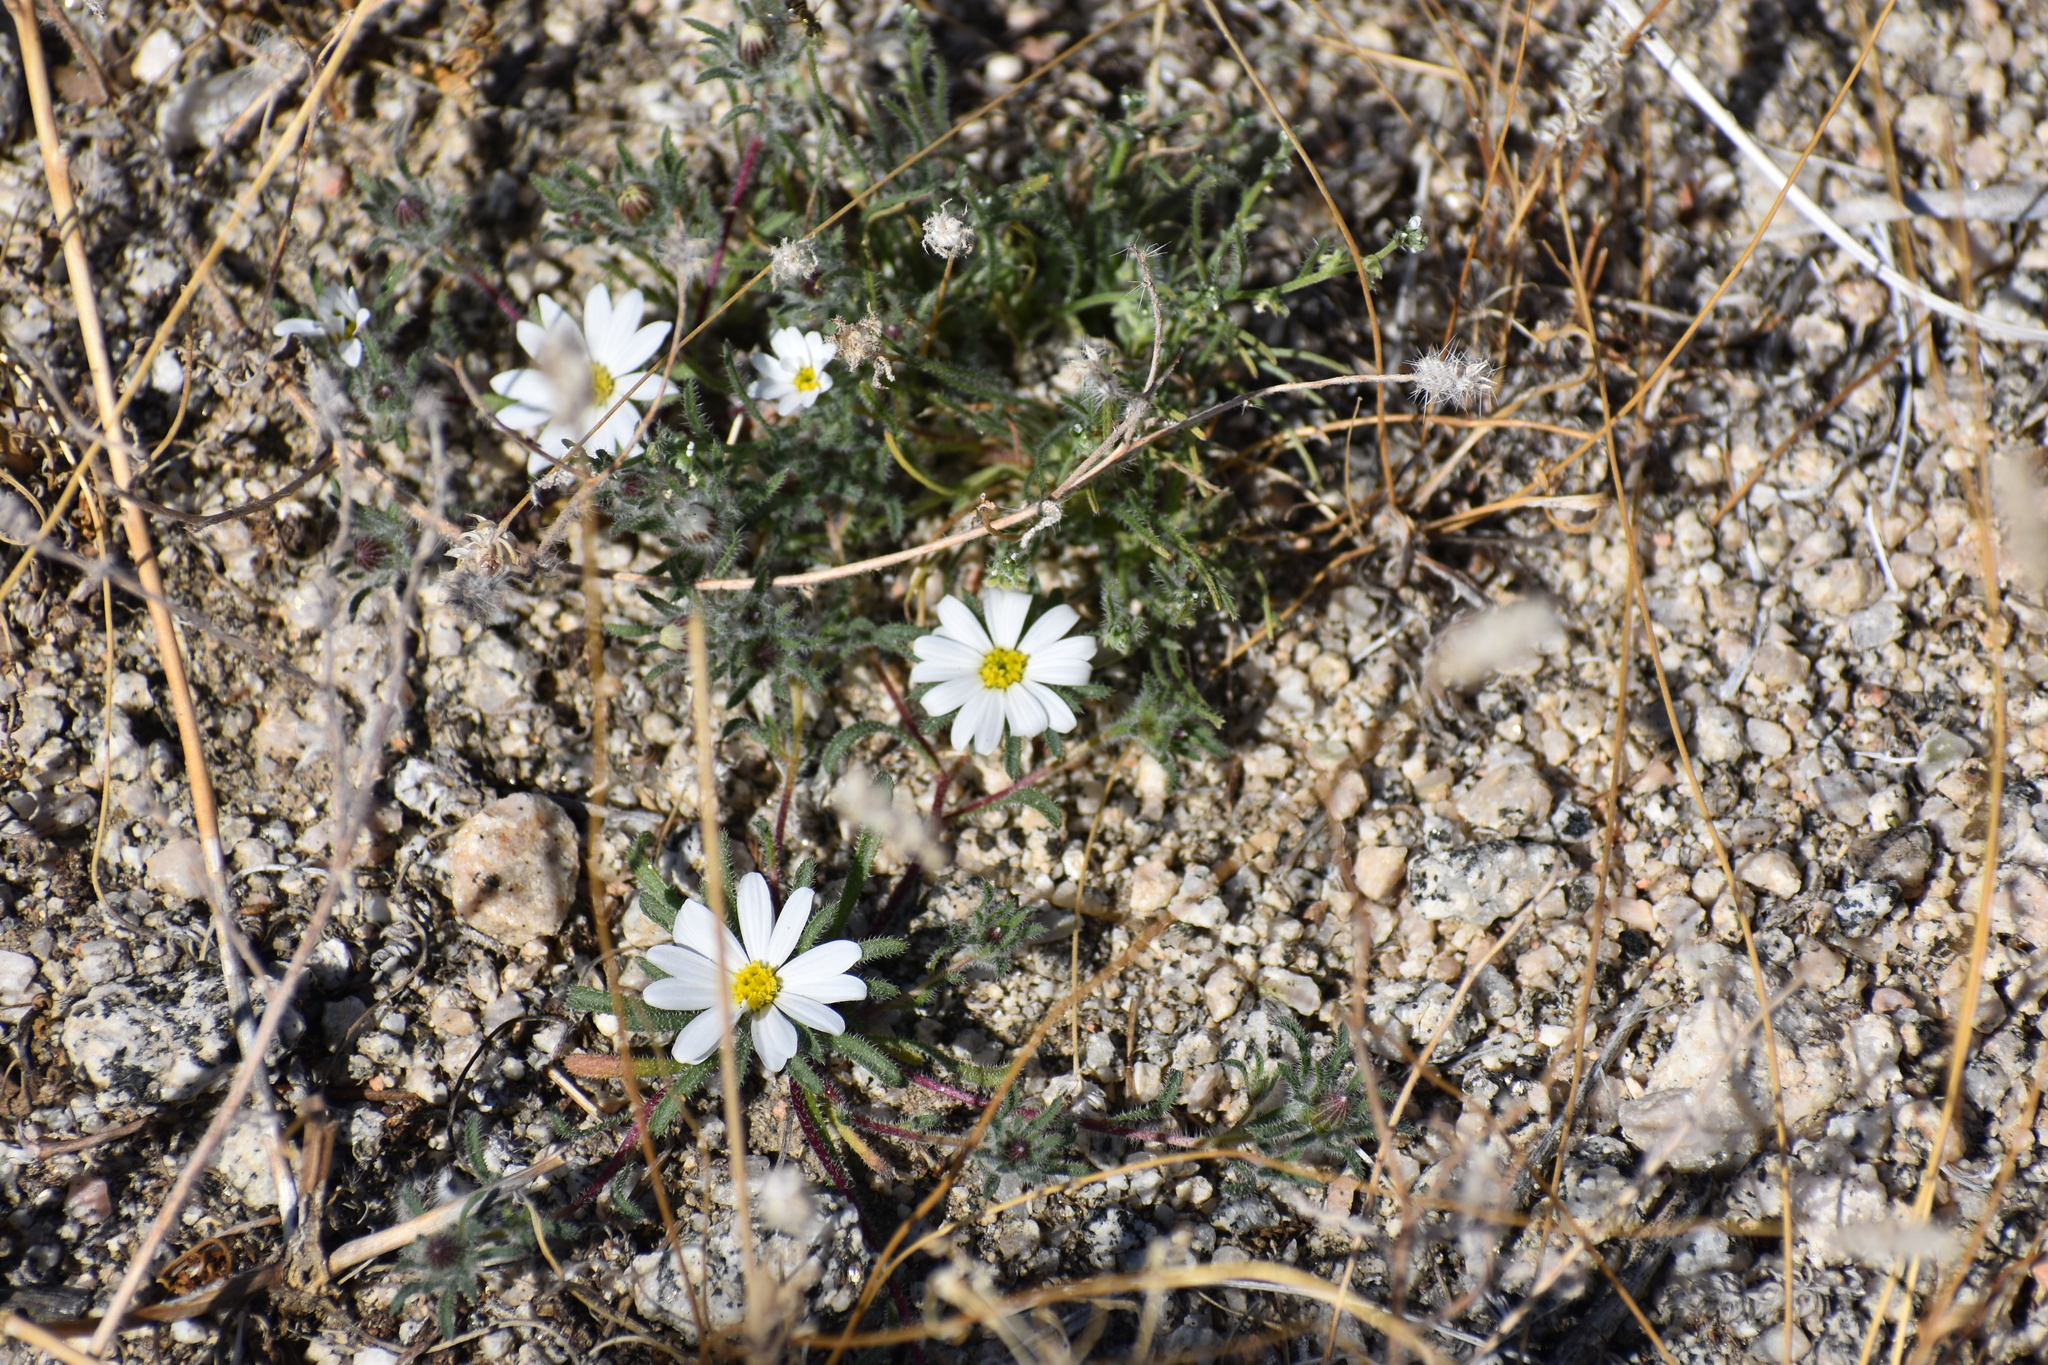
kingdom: Plantae
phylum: Tracheophyta
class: Magnoliopsida
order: Asterales
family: Asteraceae
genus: Monoptilon
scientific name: Monoptilon bellioides
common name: Bristly desertstar
